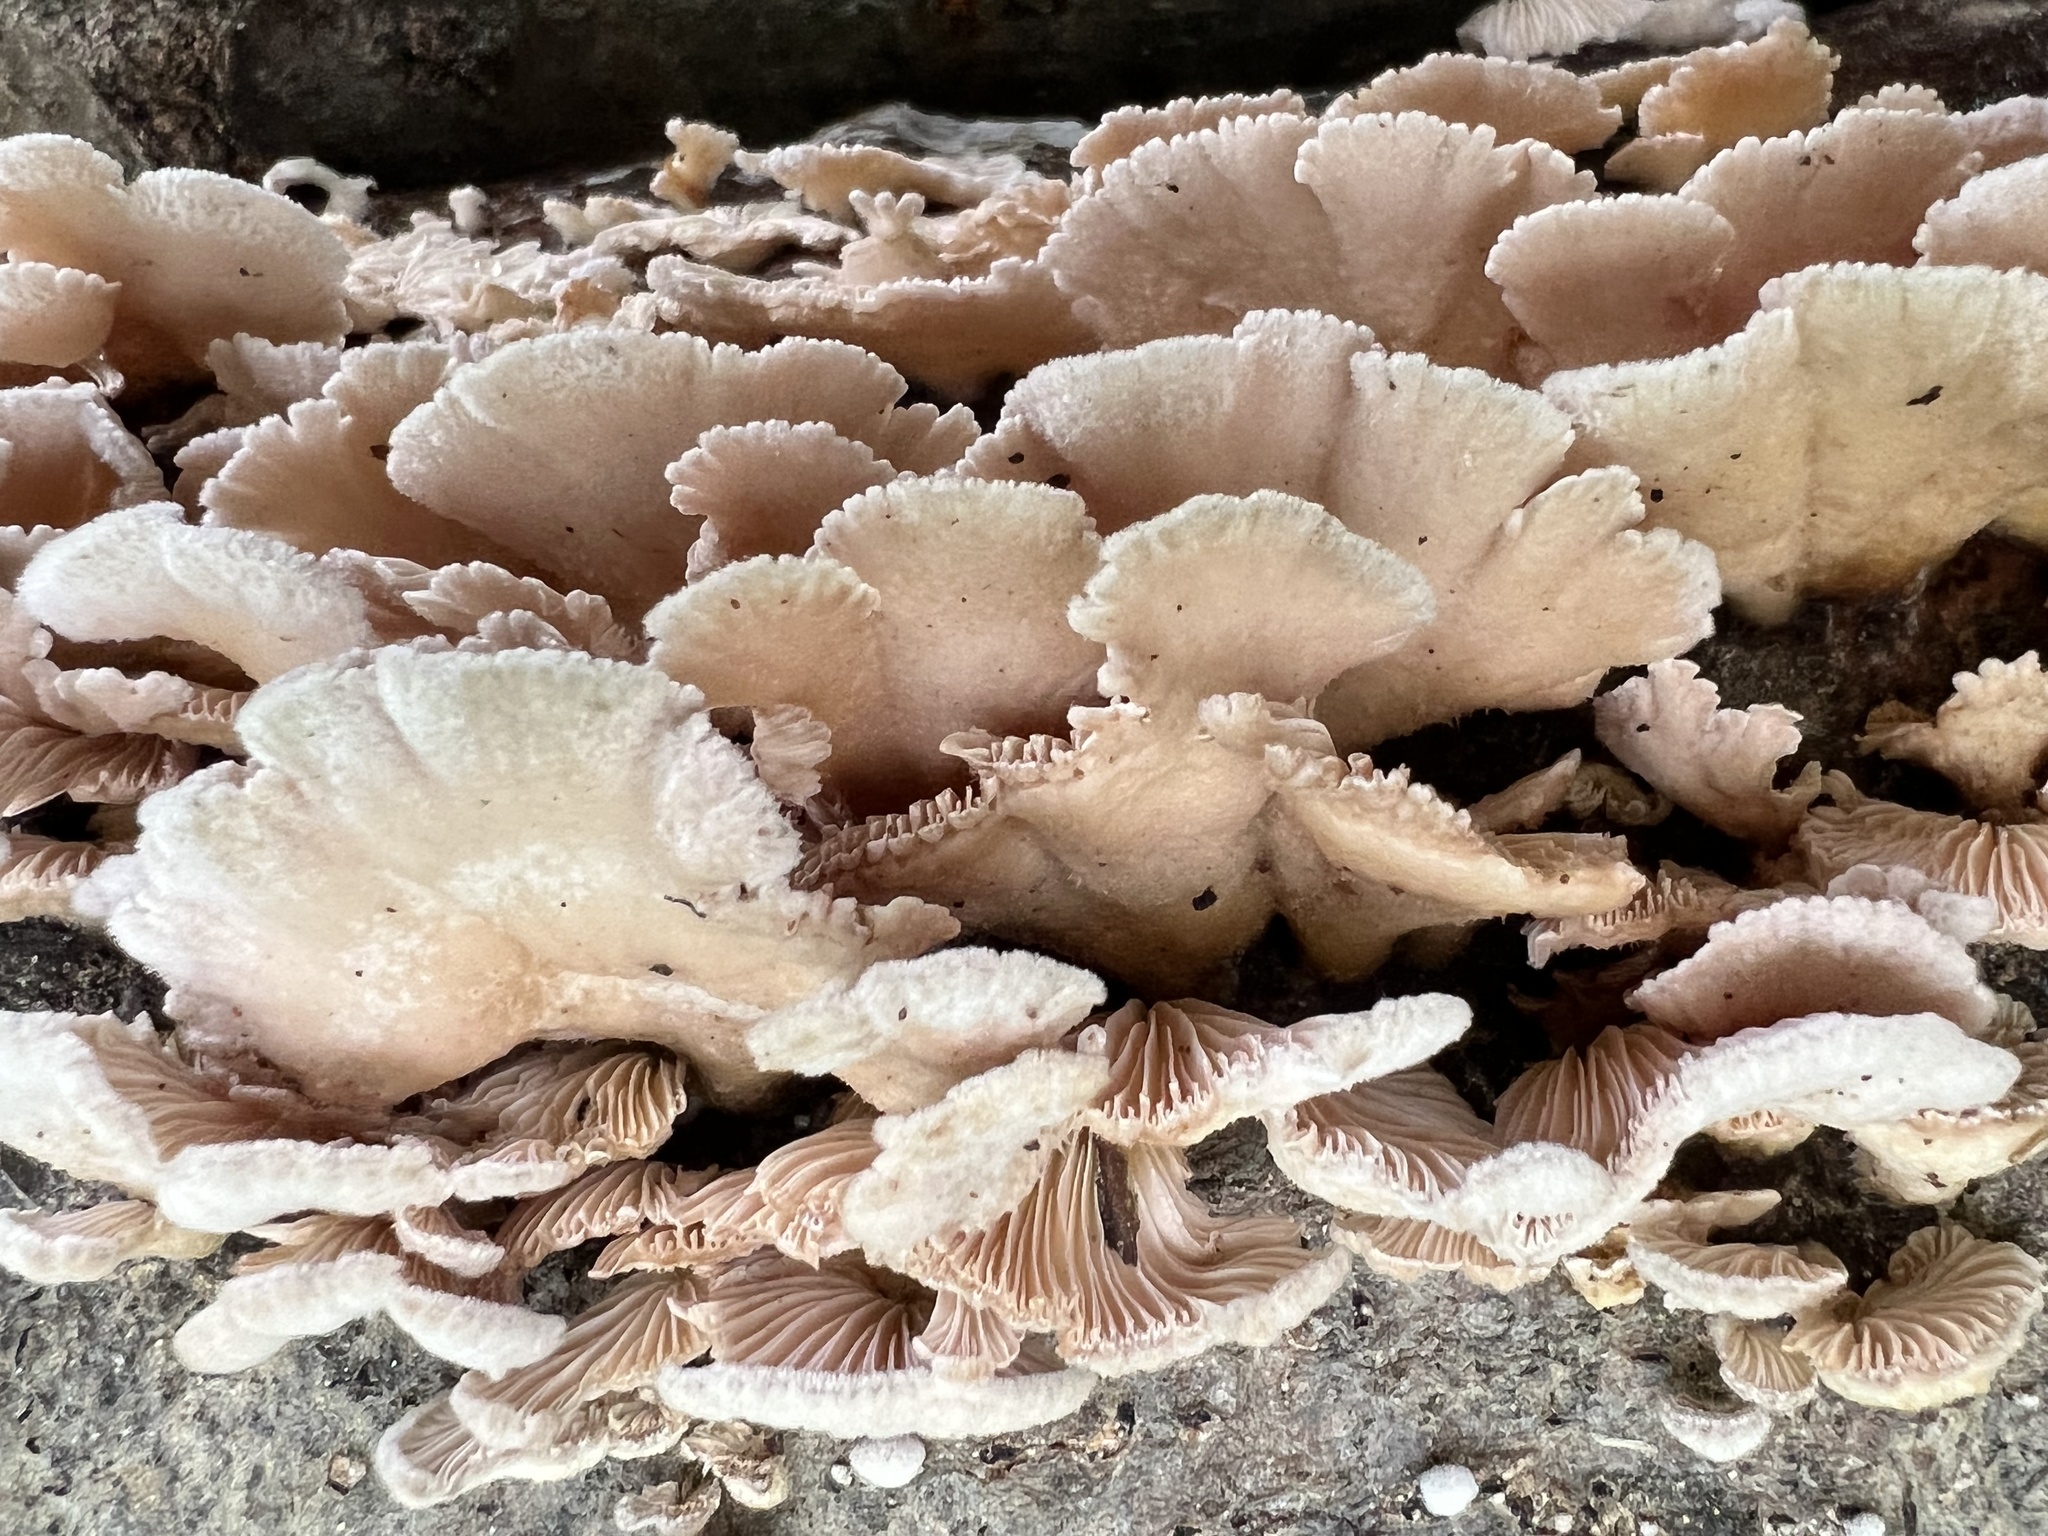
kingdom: Fungi
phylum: Basidiomycota
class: Agaricomycetes
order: Agaricales
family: Schizophyllaceae
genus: Schizophyllum
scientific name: Schizophyllum commune
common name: Common porecrust
